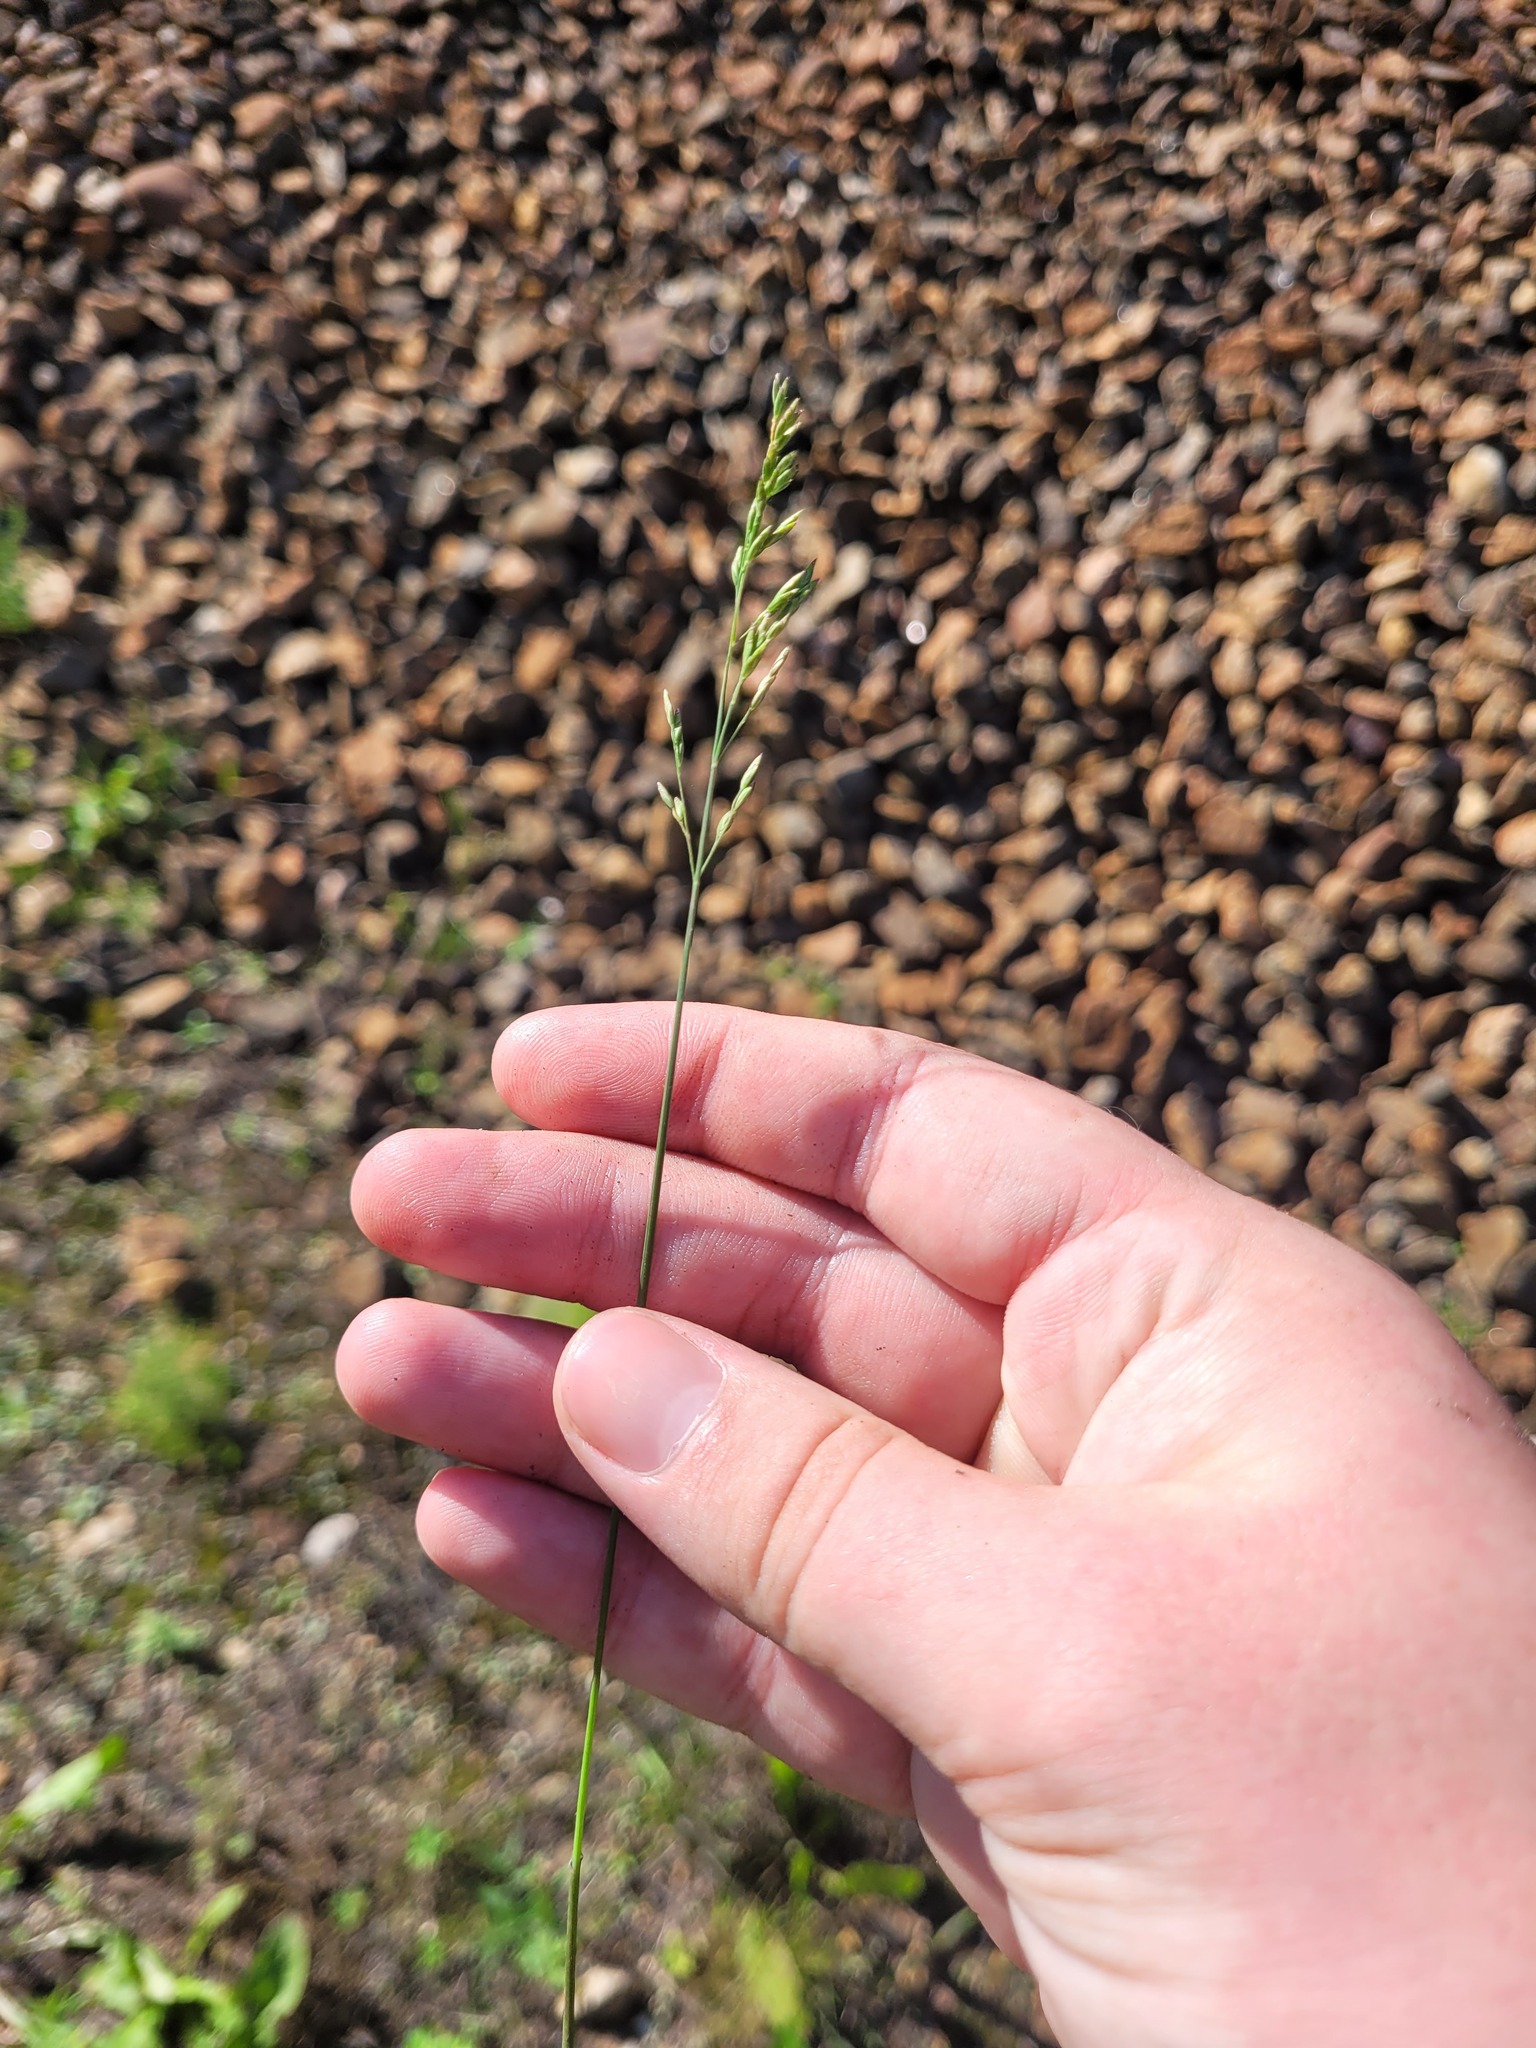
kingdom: Plantae
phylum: Tracheophyta
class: Liliopsida
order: Poales
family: Poaceae
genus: Poa
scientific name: Poa compressa
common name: Canada bluegrass
